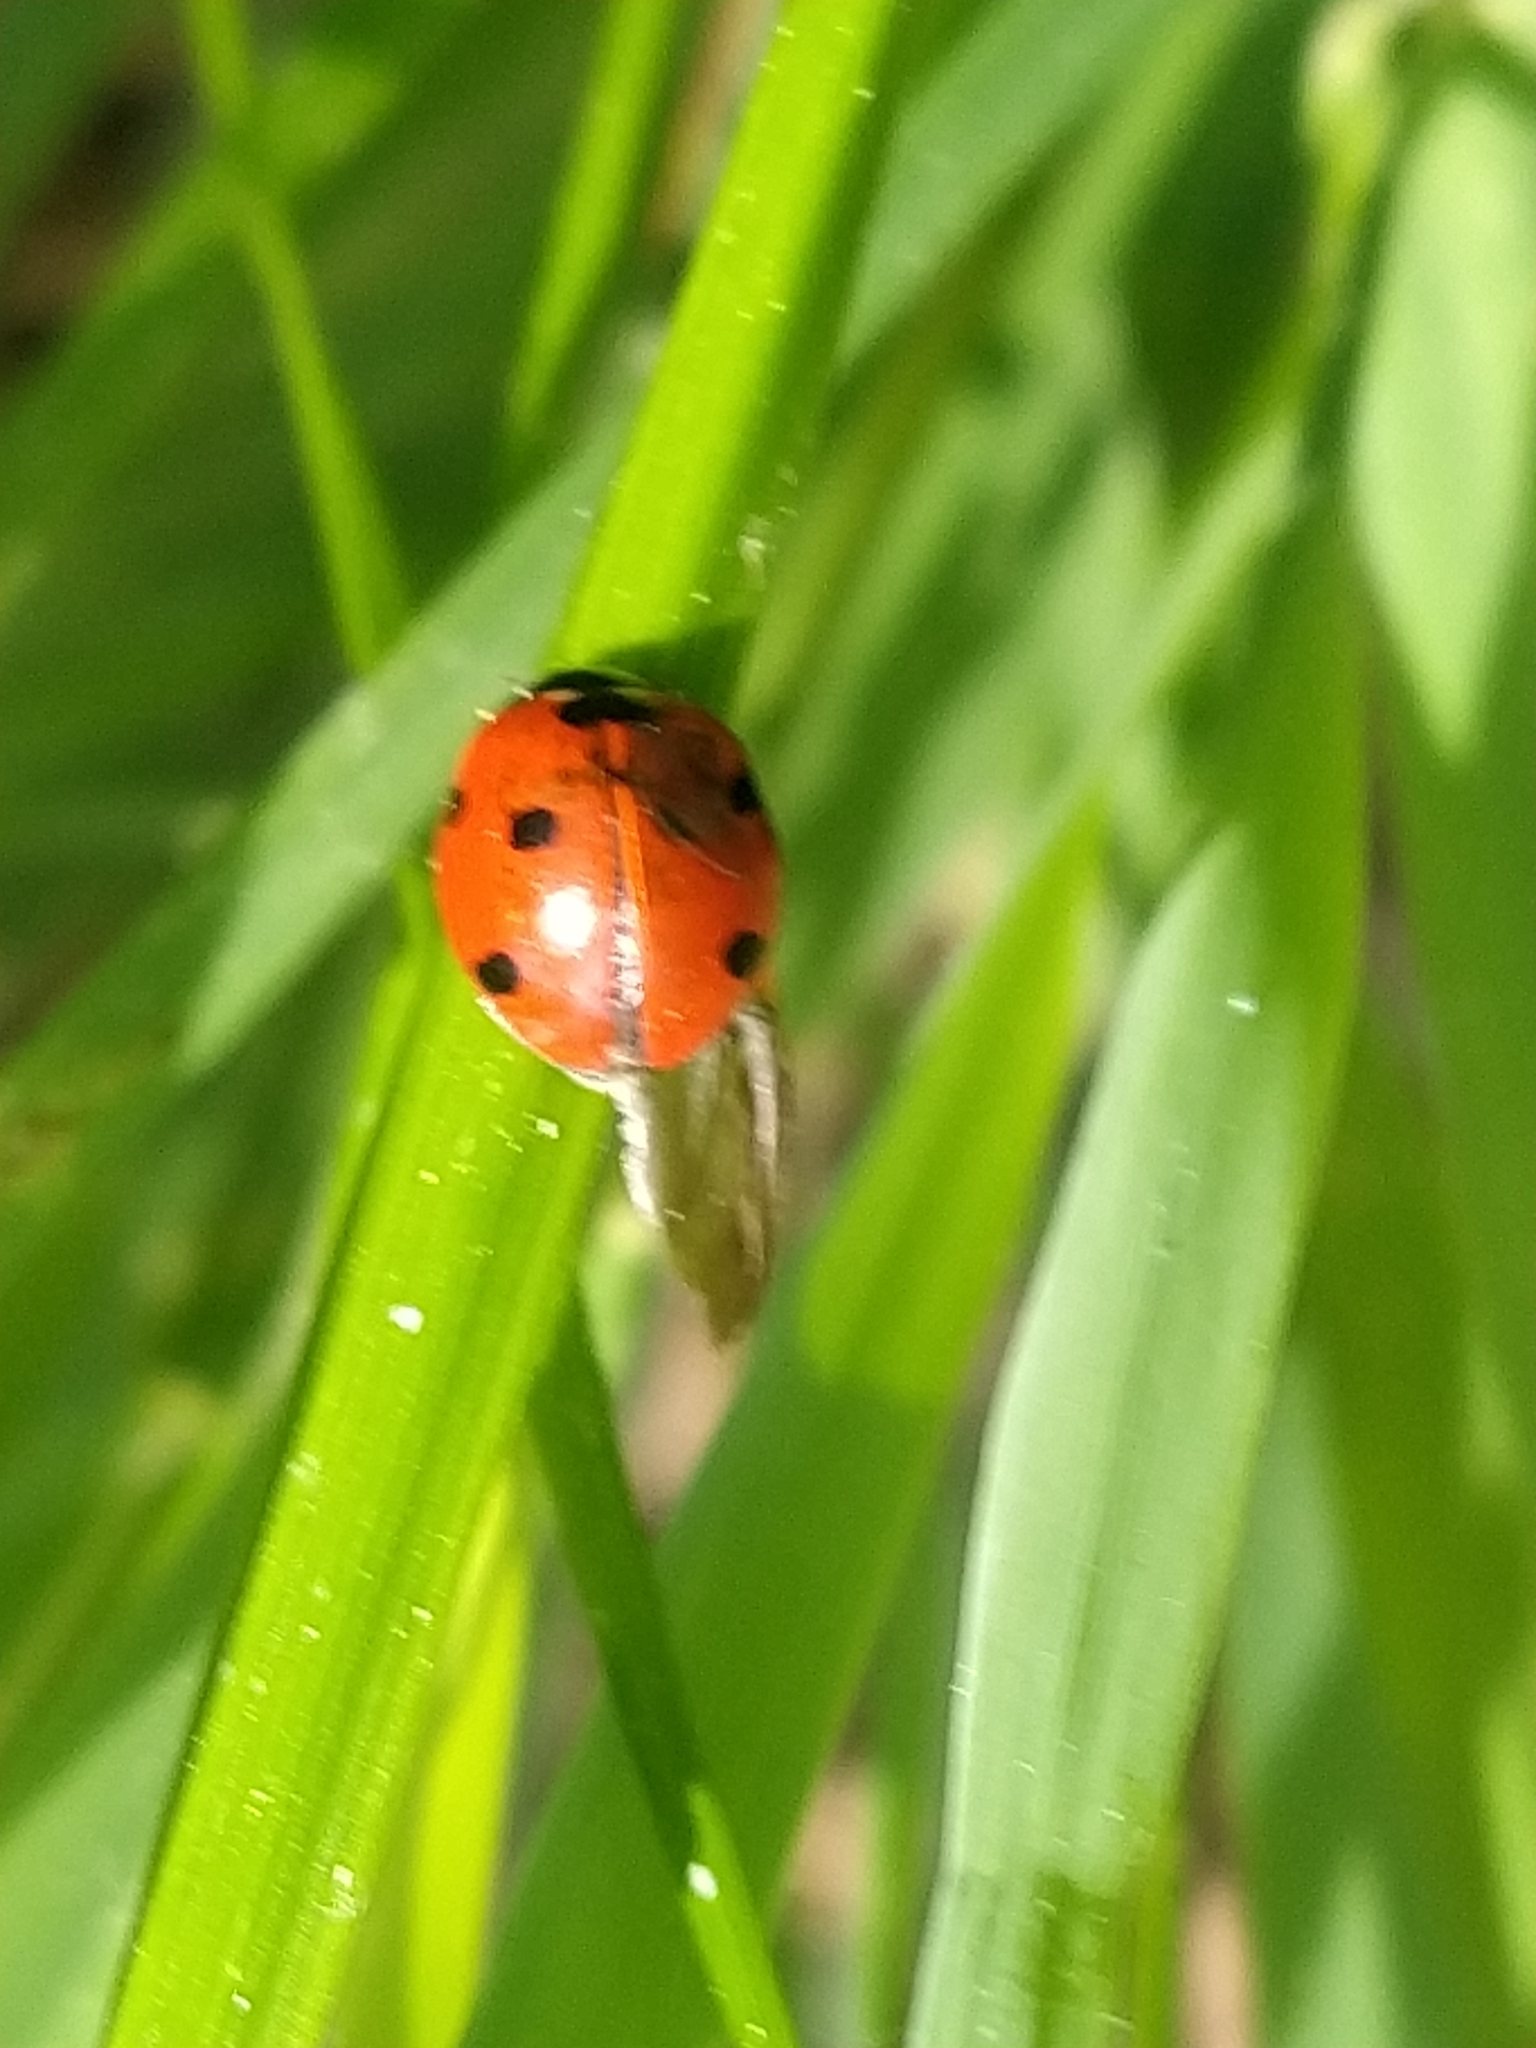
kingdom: Animalia
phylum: Arthropoda
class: Insecta
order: Coleoptera
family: Coccinellidae
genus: Coccinella
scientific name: Coccinella septempunctata
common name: Sevenspotted lady beetle
